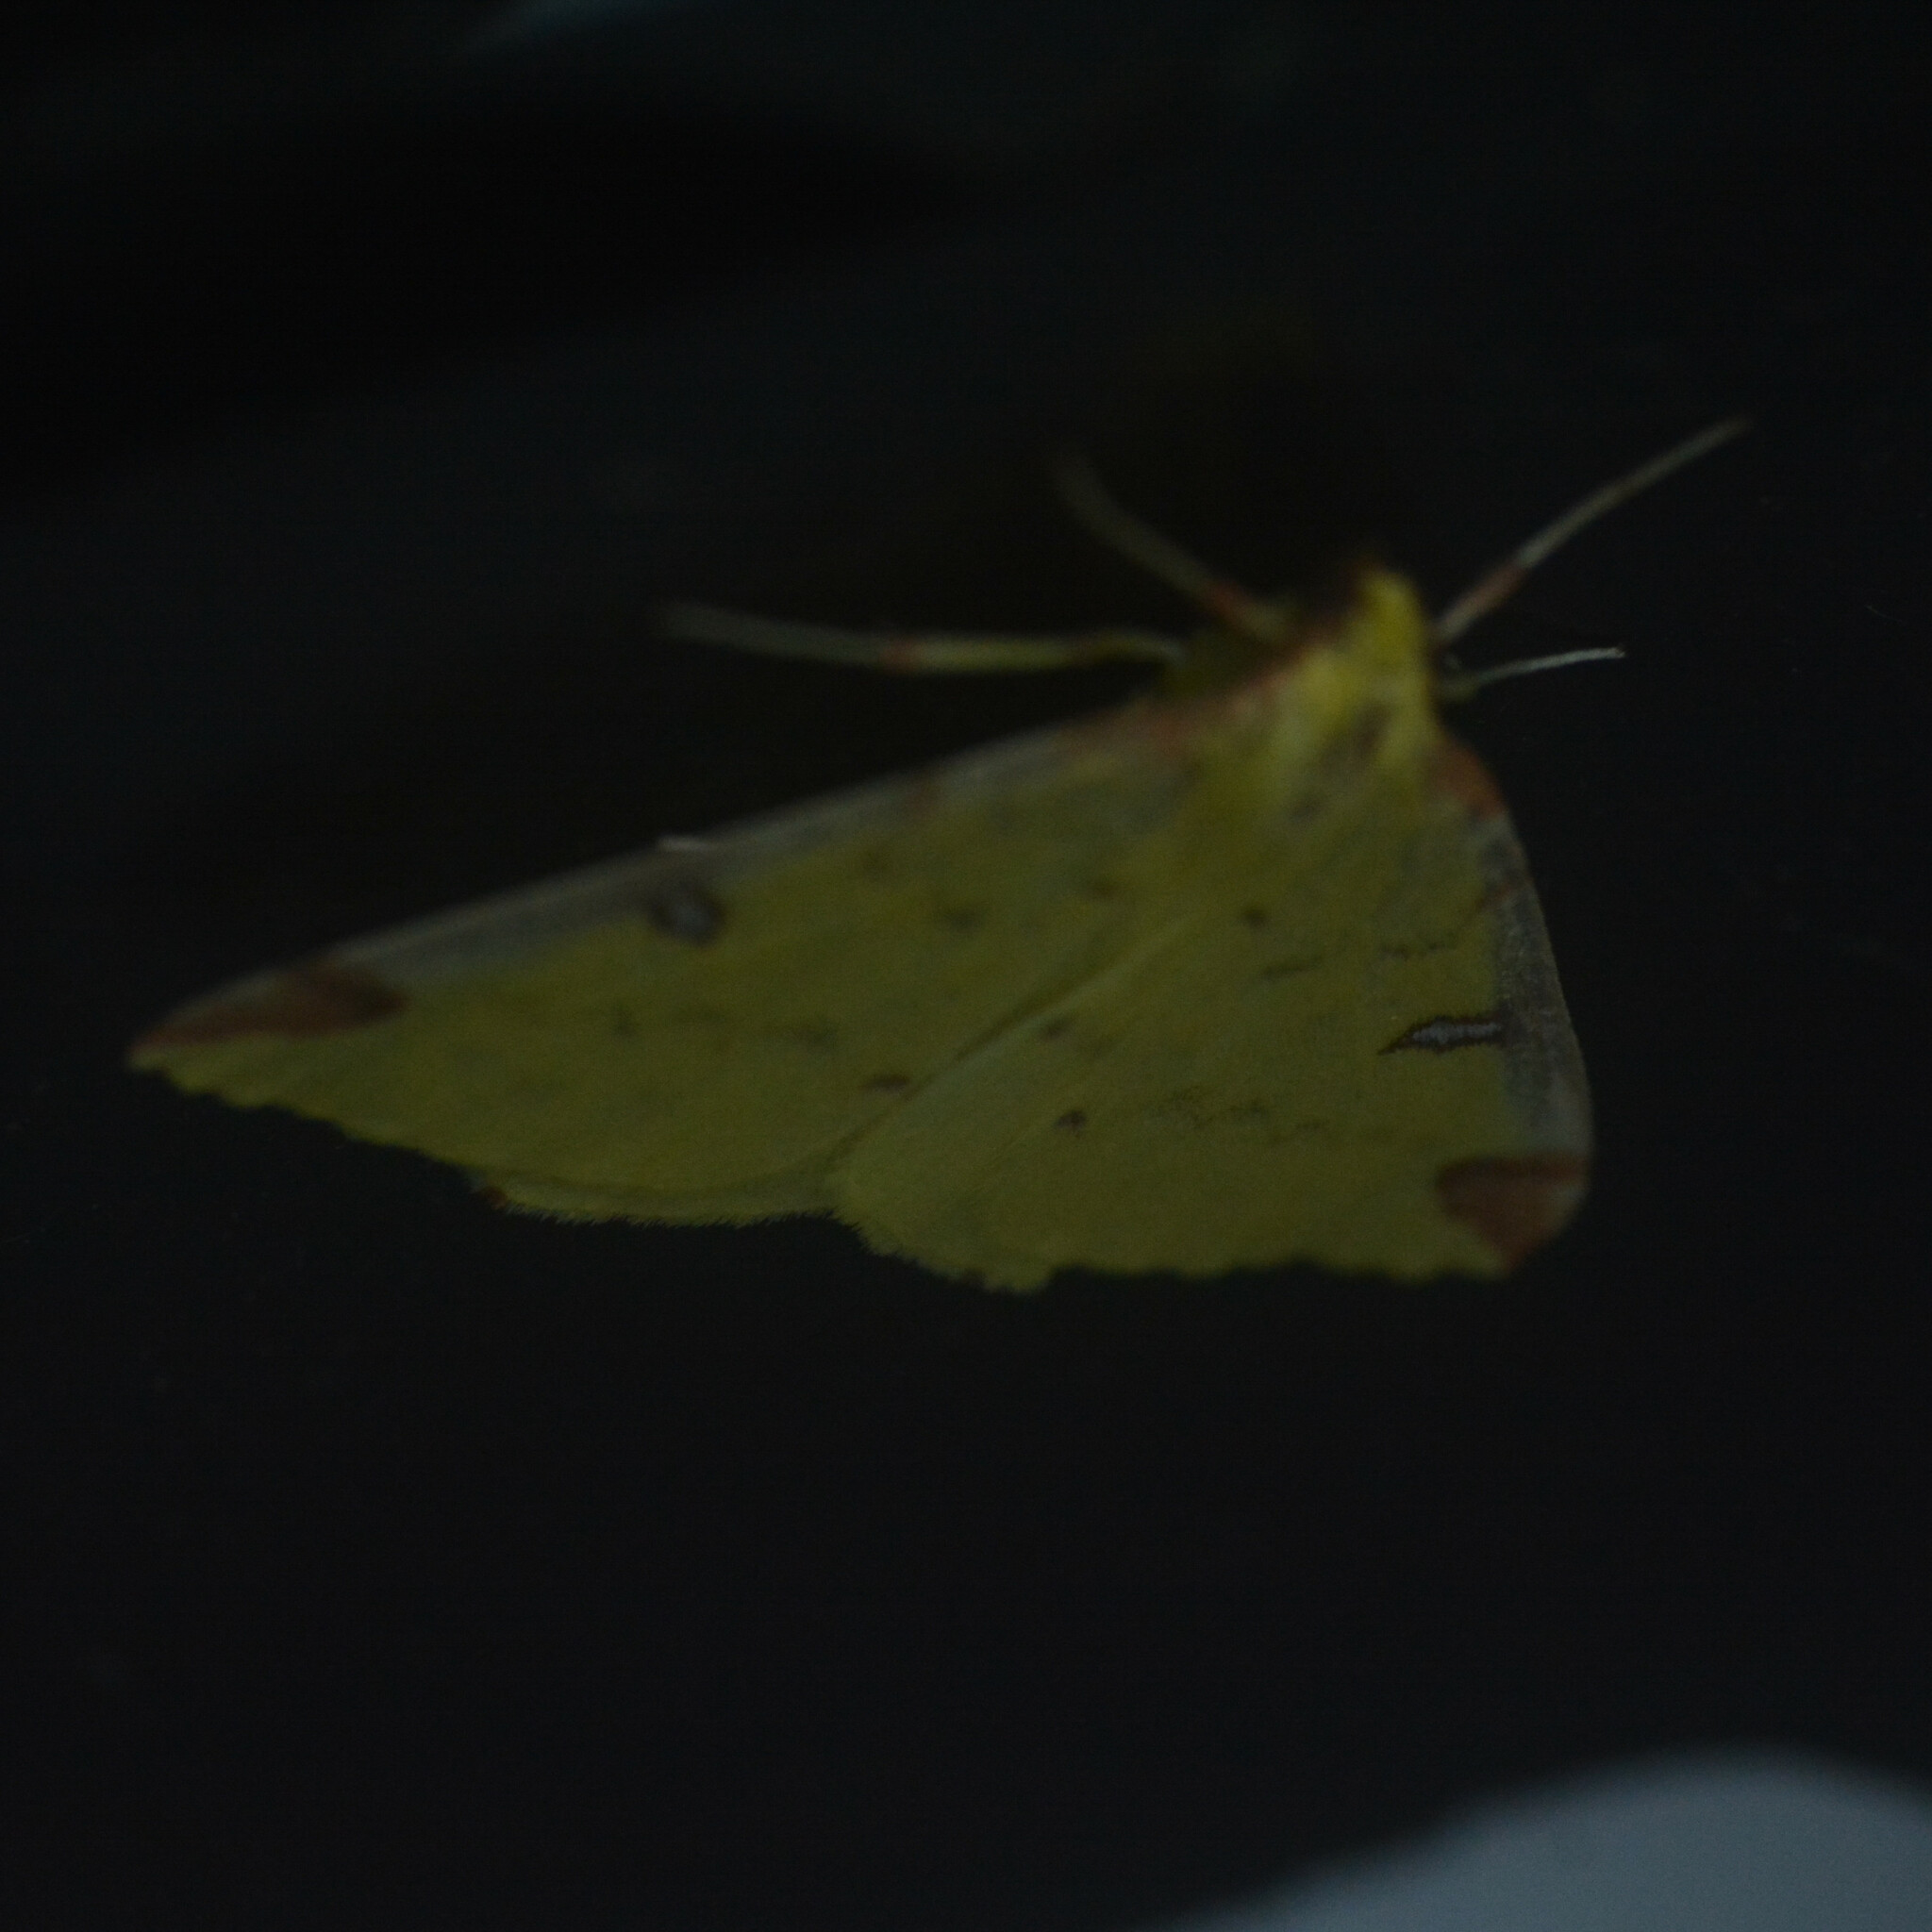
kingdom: Animalia
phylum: Arthropoda
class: Insecta
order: Lepidoptera
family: Geometridae
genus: Opisthograptis
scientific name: Opisthograptis luteolata
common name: Brimstone moth
